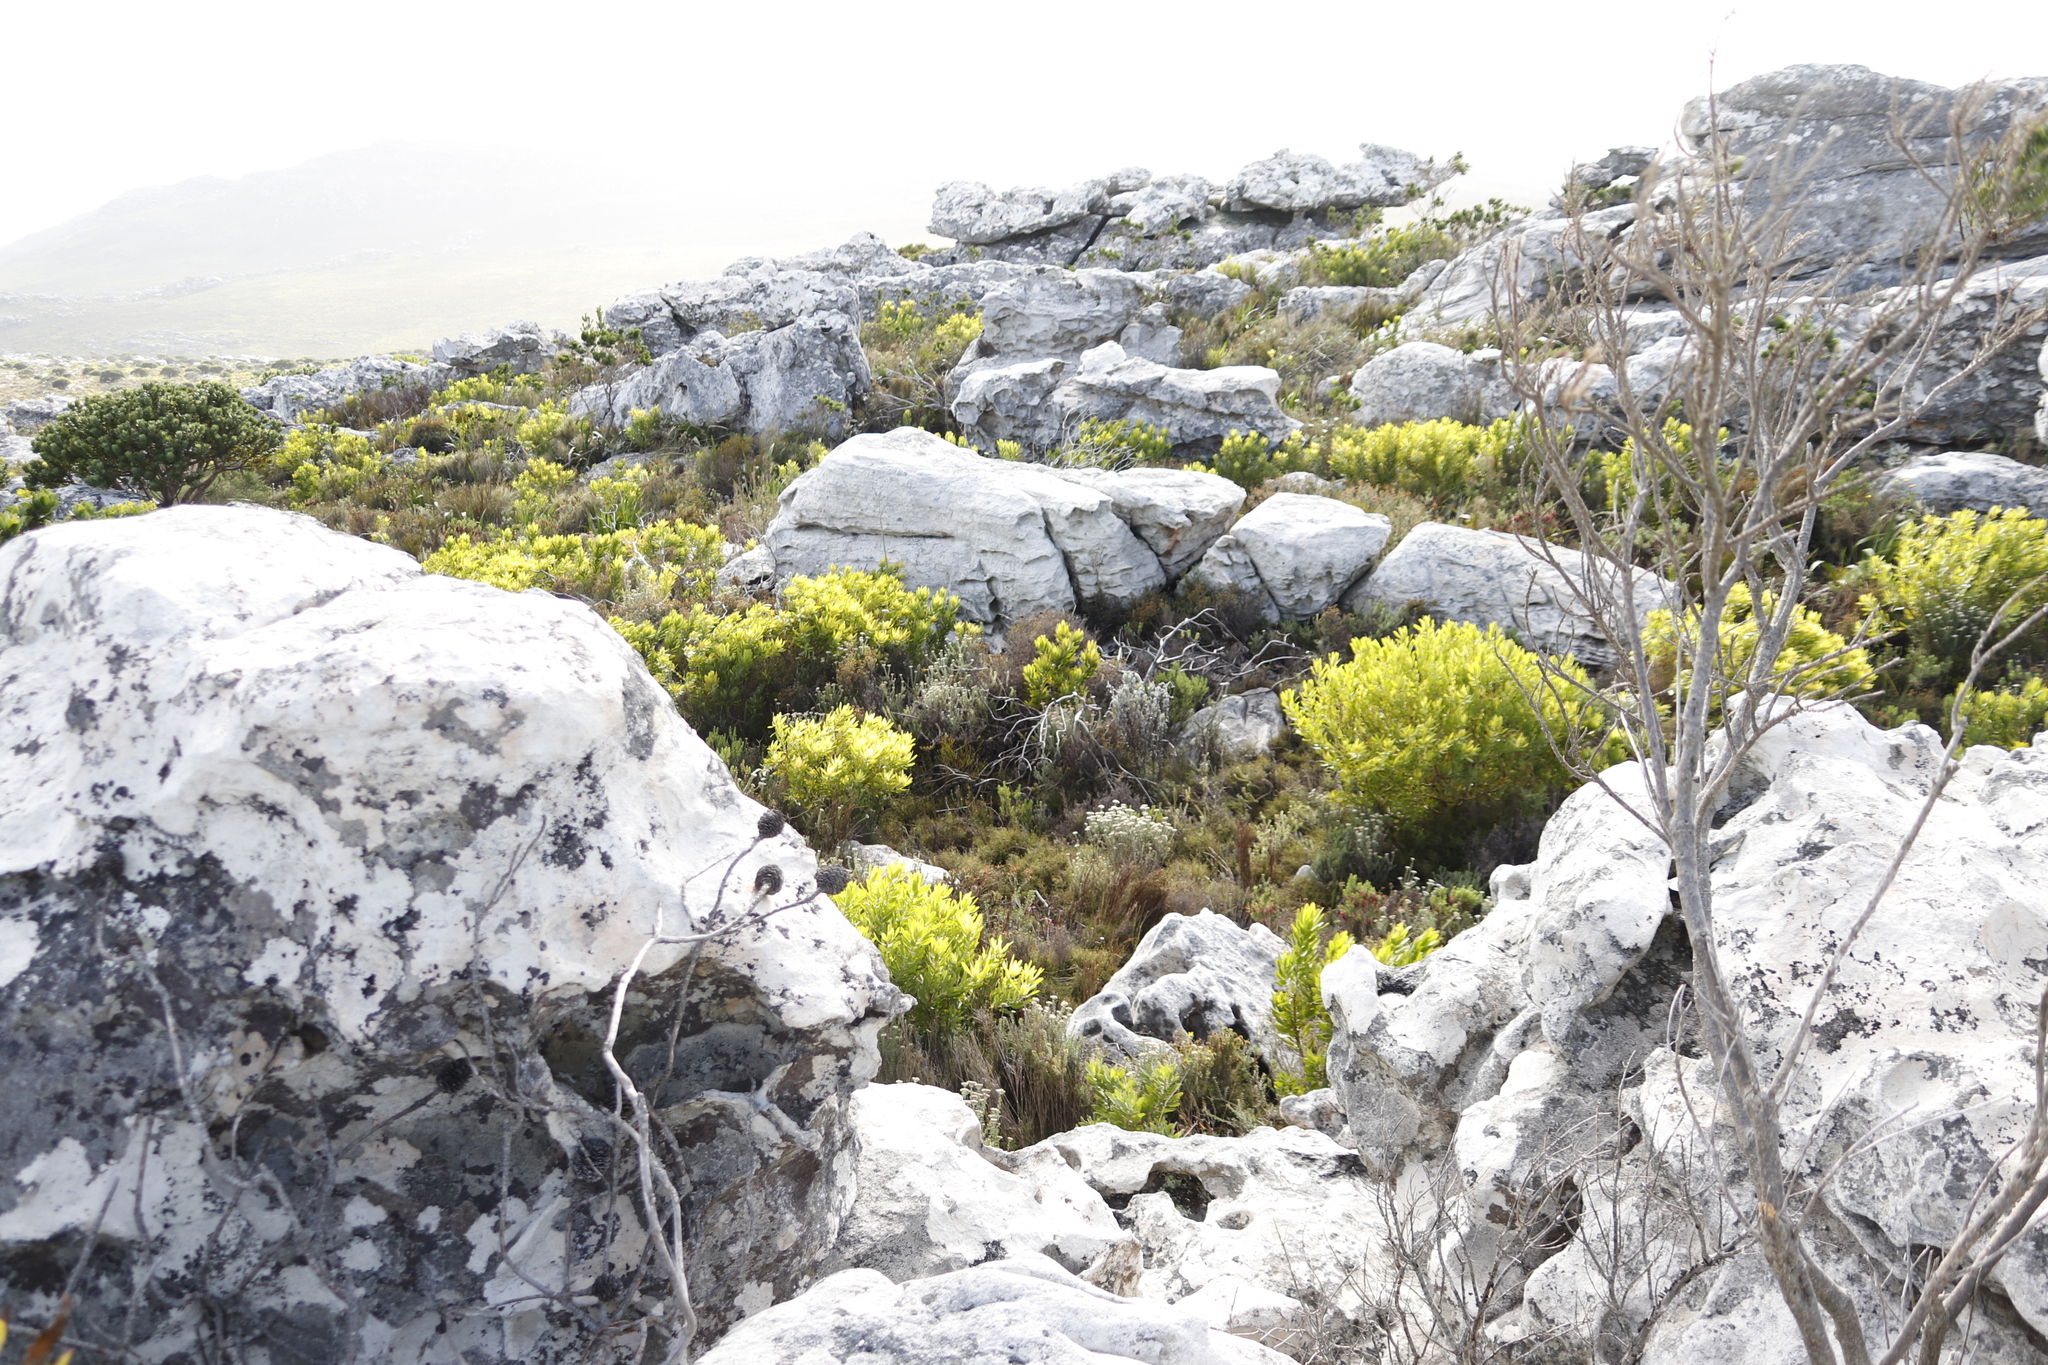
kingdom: Plantae
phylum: Tracheophyta
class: Magnoliopsida
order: Proteales
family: Proteaceae
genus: Leucadendron
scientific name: Leucadendron laureolum
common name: Golden sunshinebush
